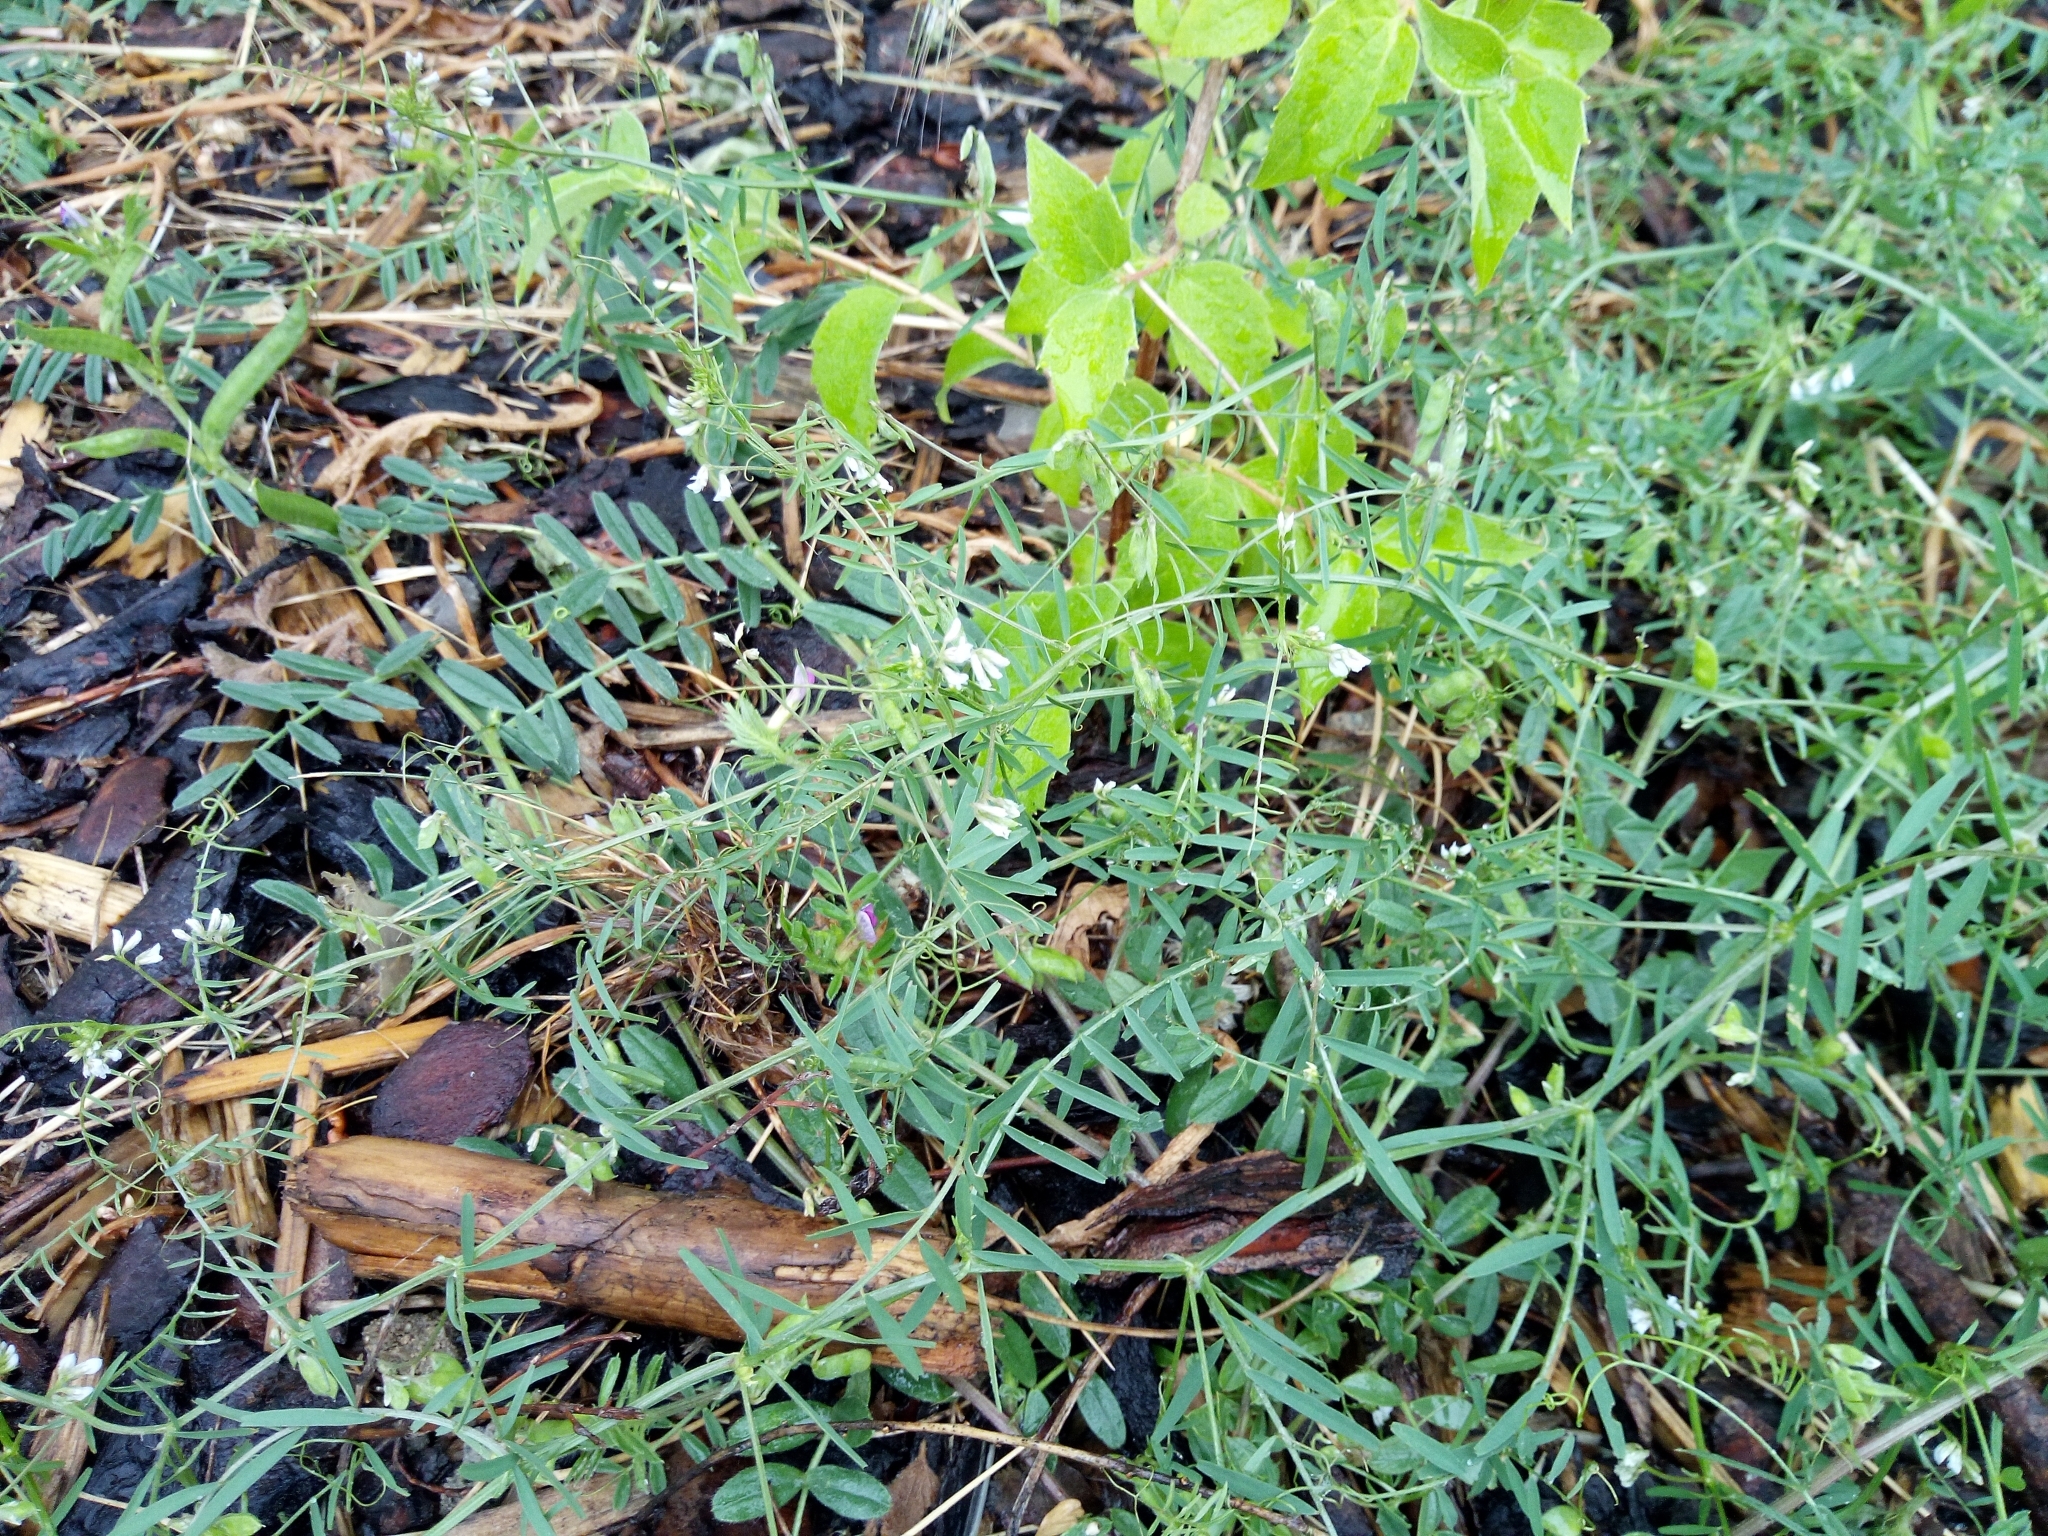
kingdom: Plantae
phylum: Tracheophyta
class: Magnoliopsida
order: Fabales
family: Fabaceae
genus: Vicia
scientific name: Vicia hirsuta
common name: Tiny vetch
